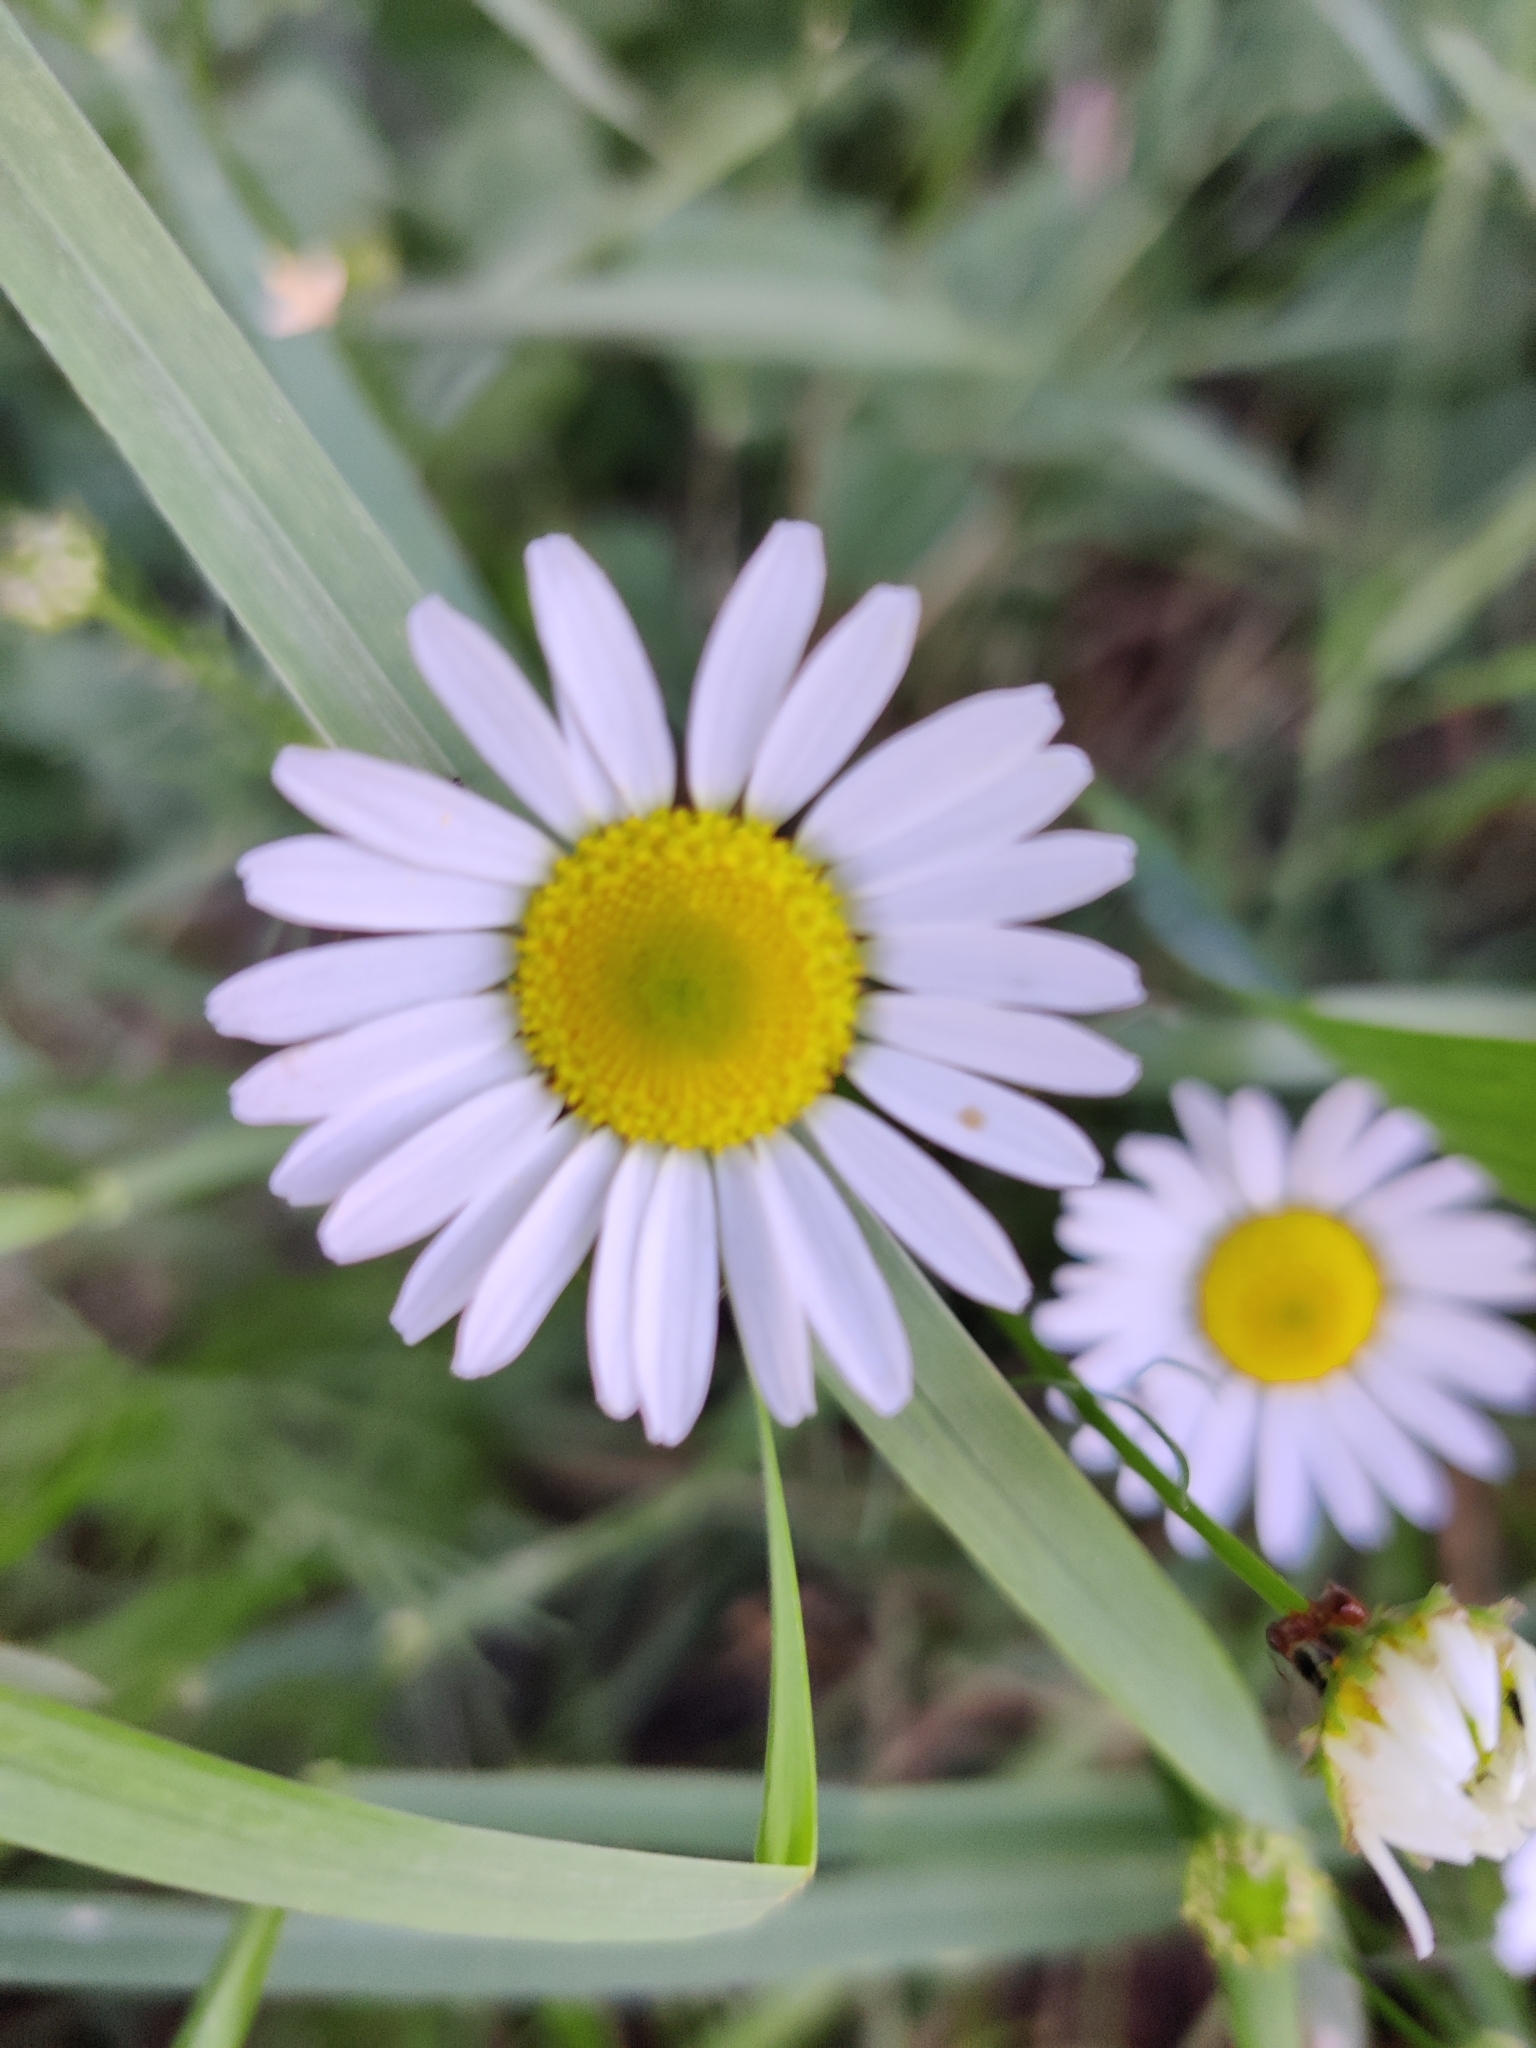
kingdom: Plantae
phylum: Tracheophyta
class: Magnoliopsida
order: Asterales
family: Asteraceae
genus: Tripleurospermum
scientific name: Tripleurospermum inodorum
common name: Scentless mayweed
